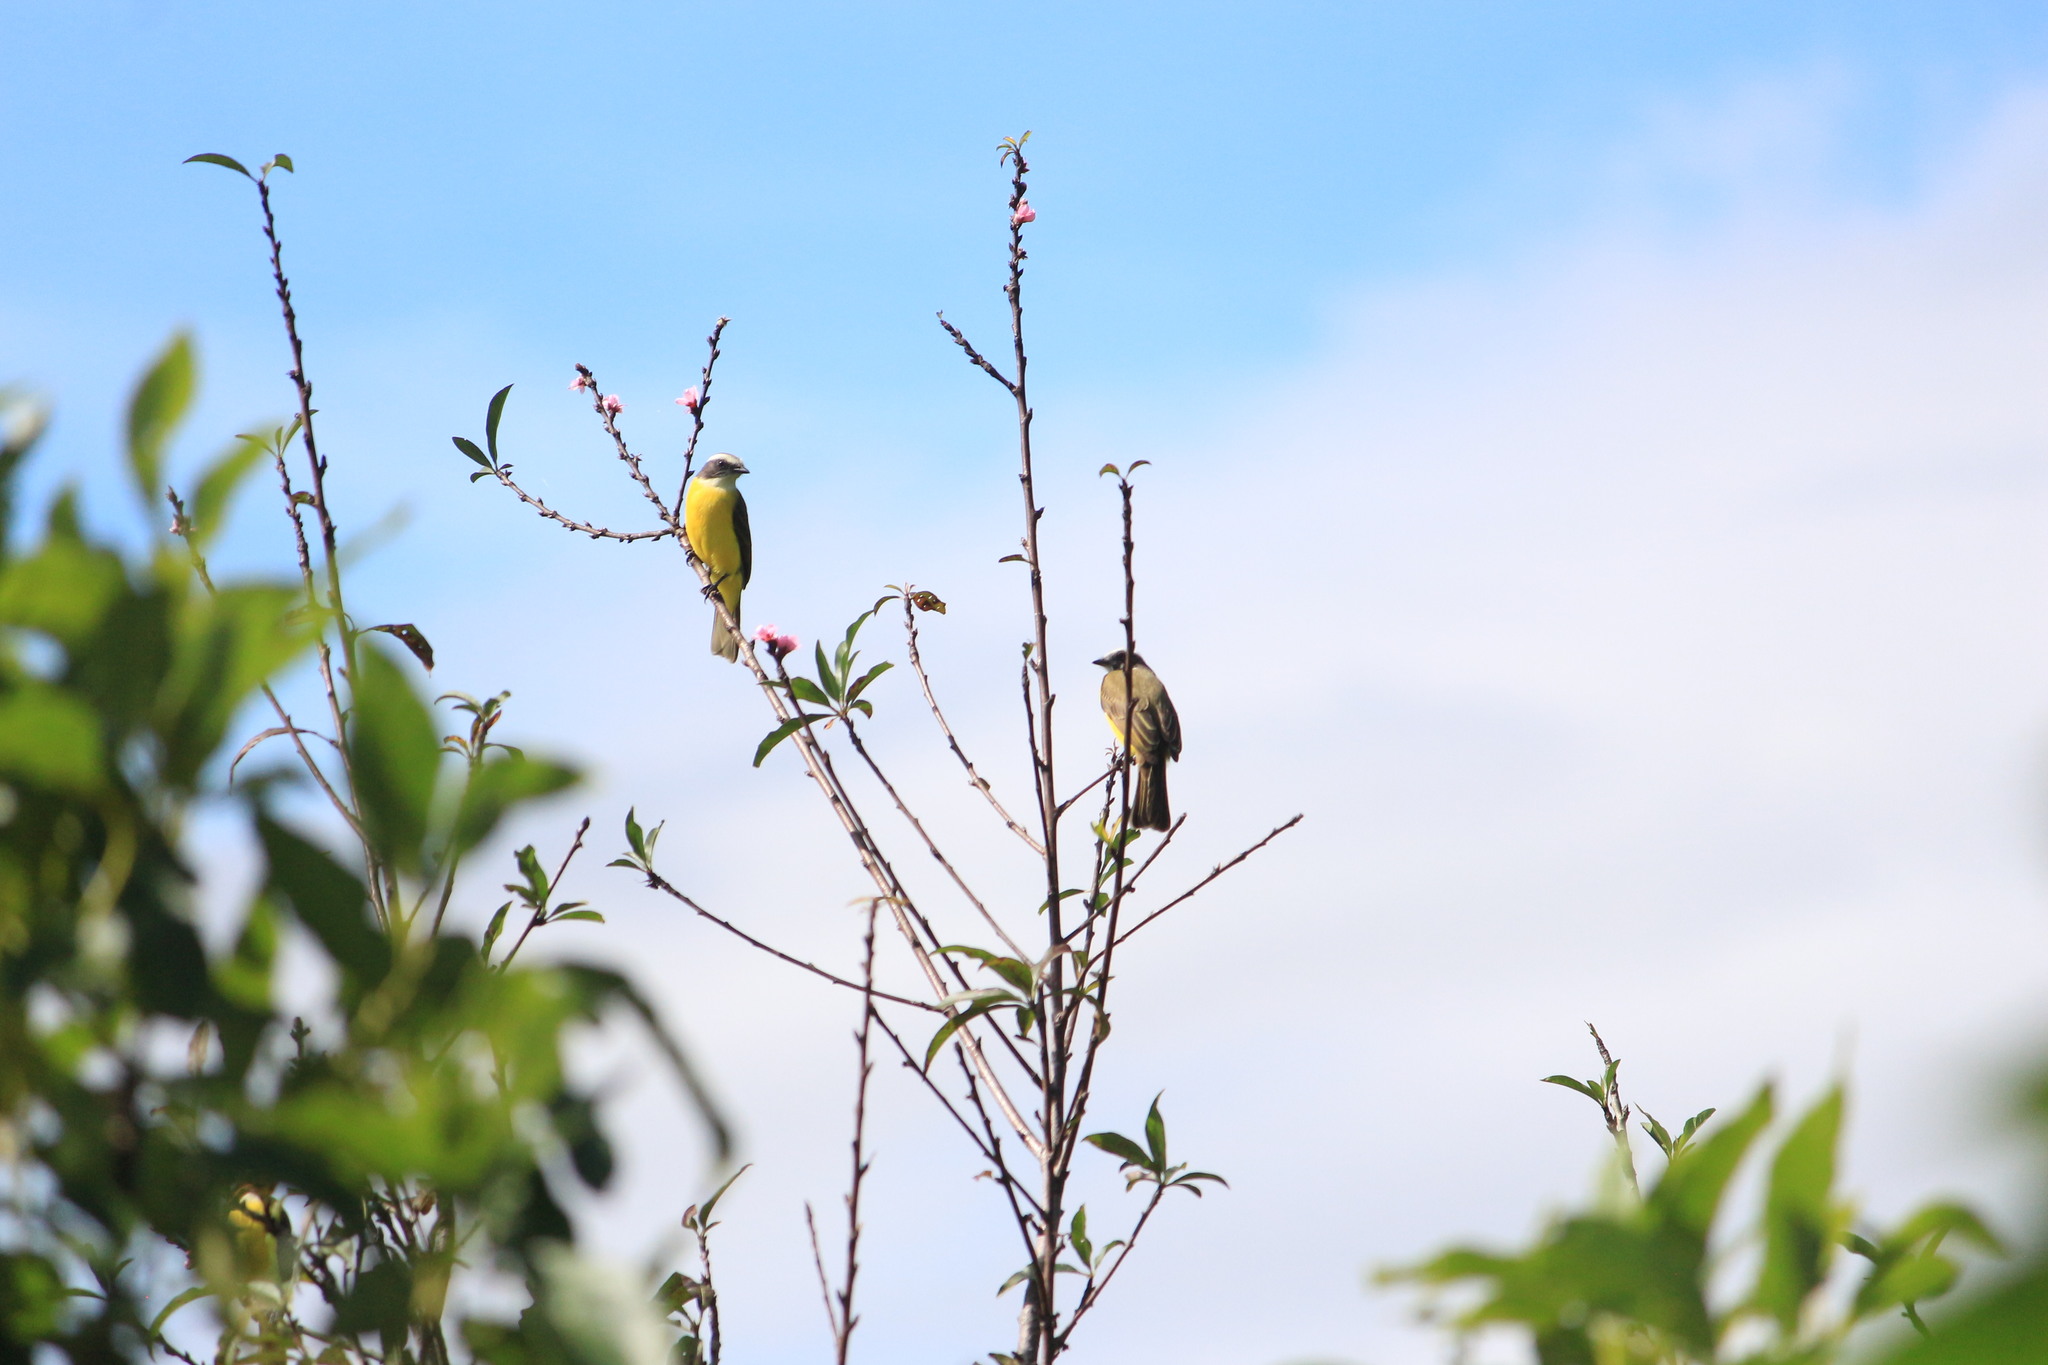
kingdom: Animalia
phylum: Chordata
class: Aves
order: Passeriformes
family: Tyrannidae
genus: Myiozetetes
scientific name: Myiozetetes similis
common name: Social flycatcher
